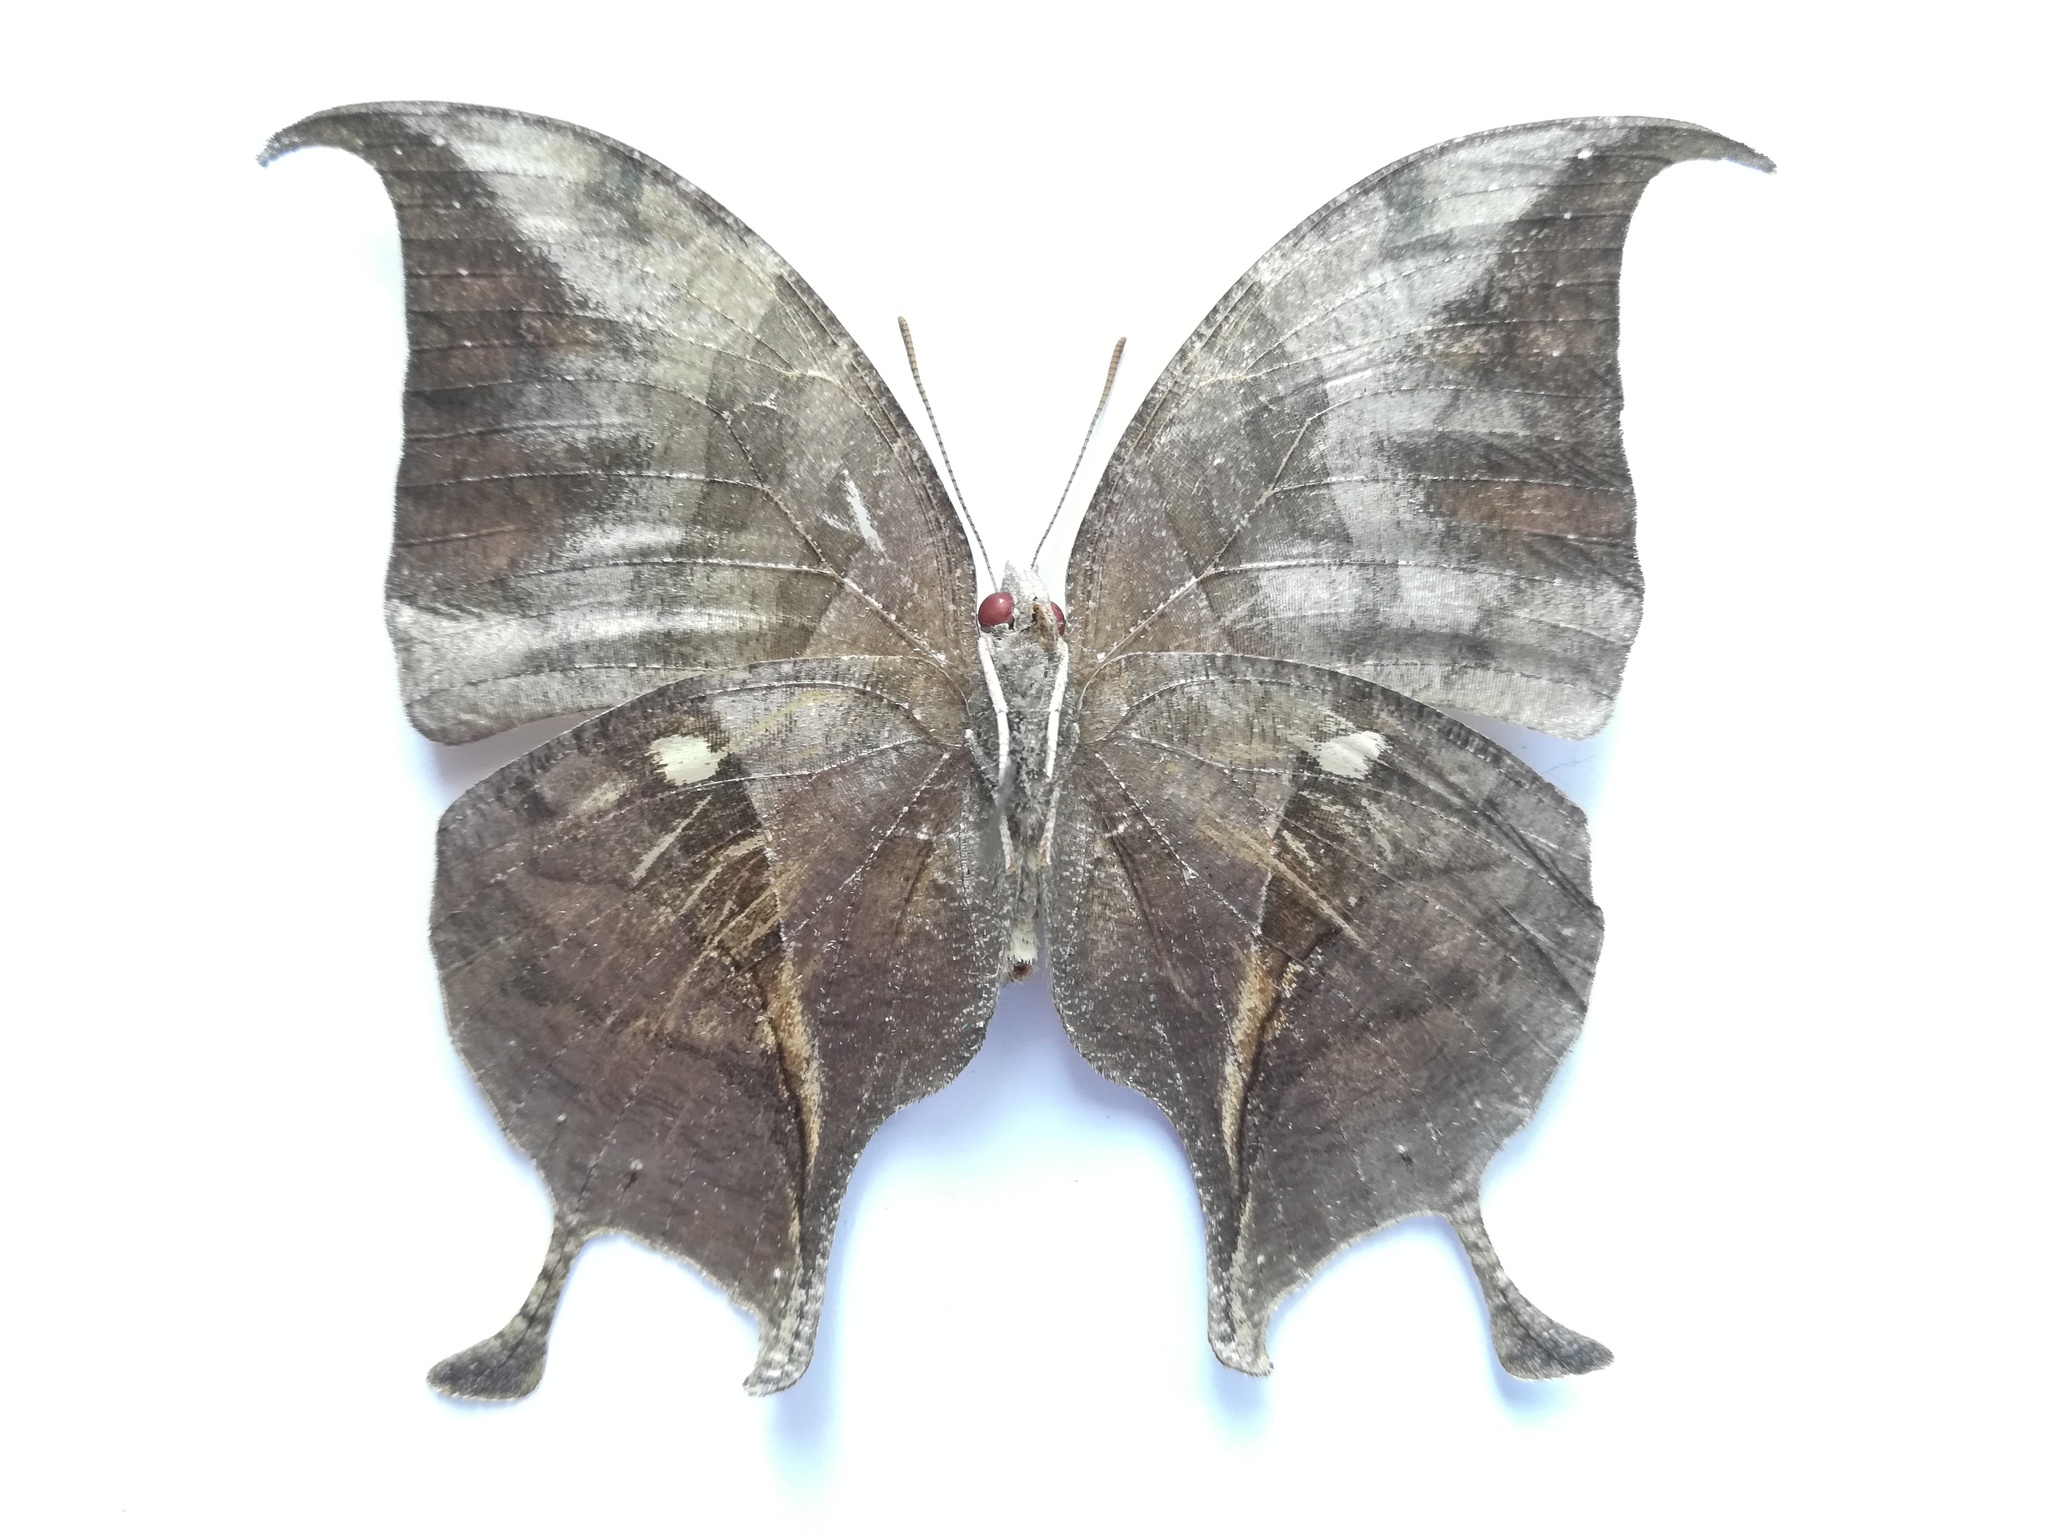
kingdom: Animalia
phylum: Arthropoda
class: Insecta
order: Lepidoptera
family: Nymphalidae
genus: Consul
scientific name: Consul electra
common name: Pearly leafwing
